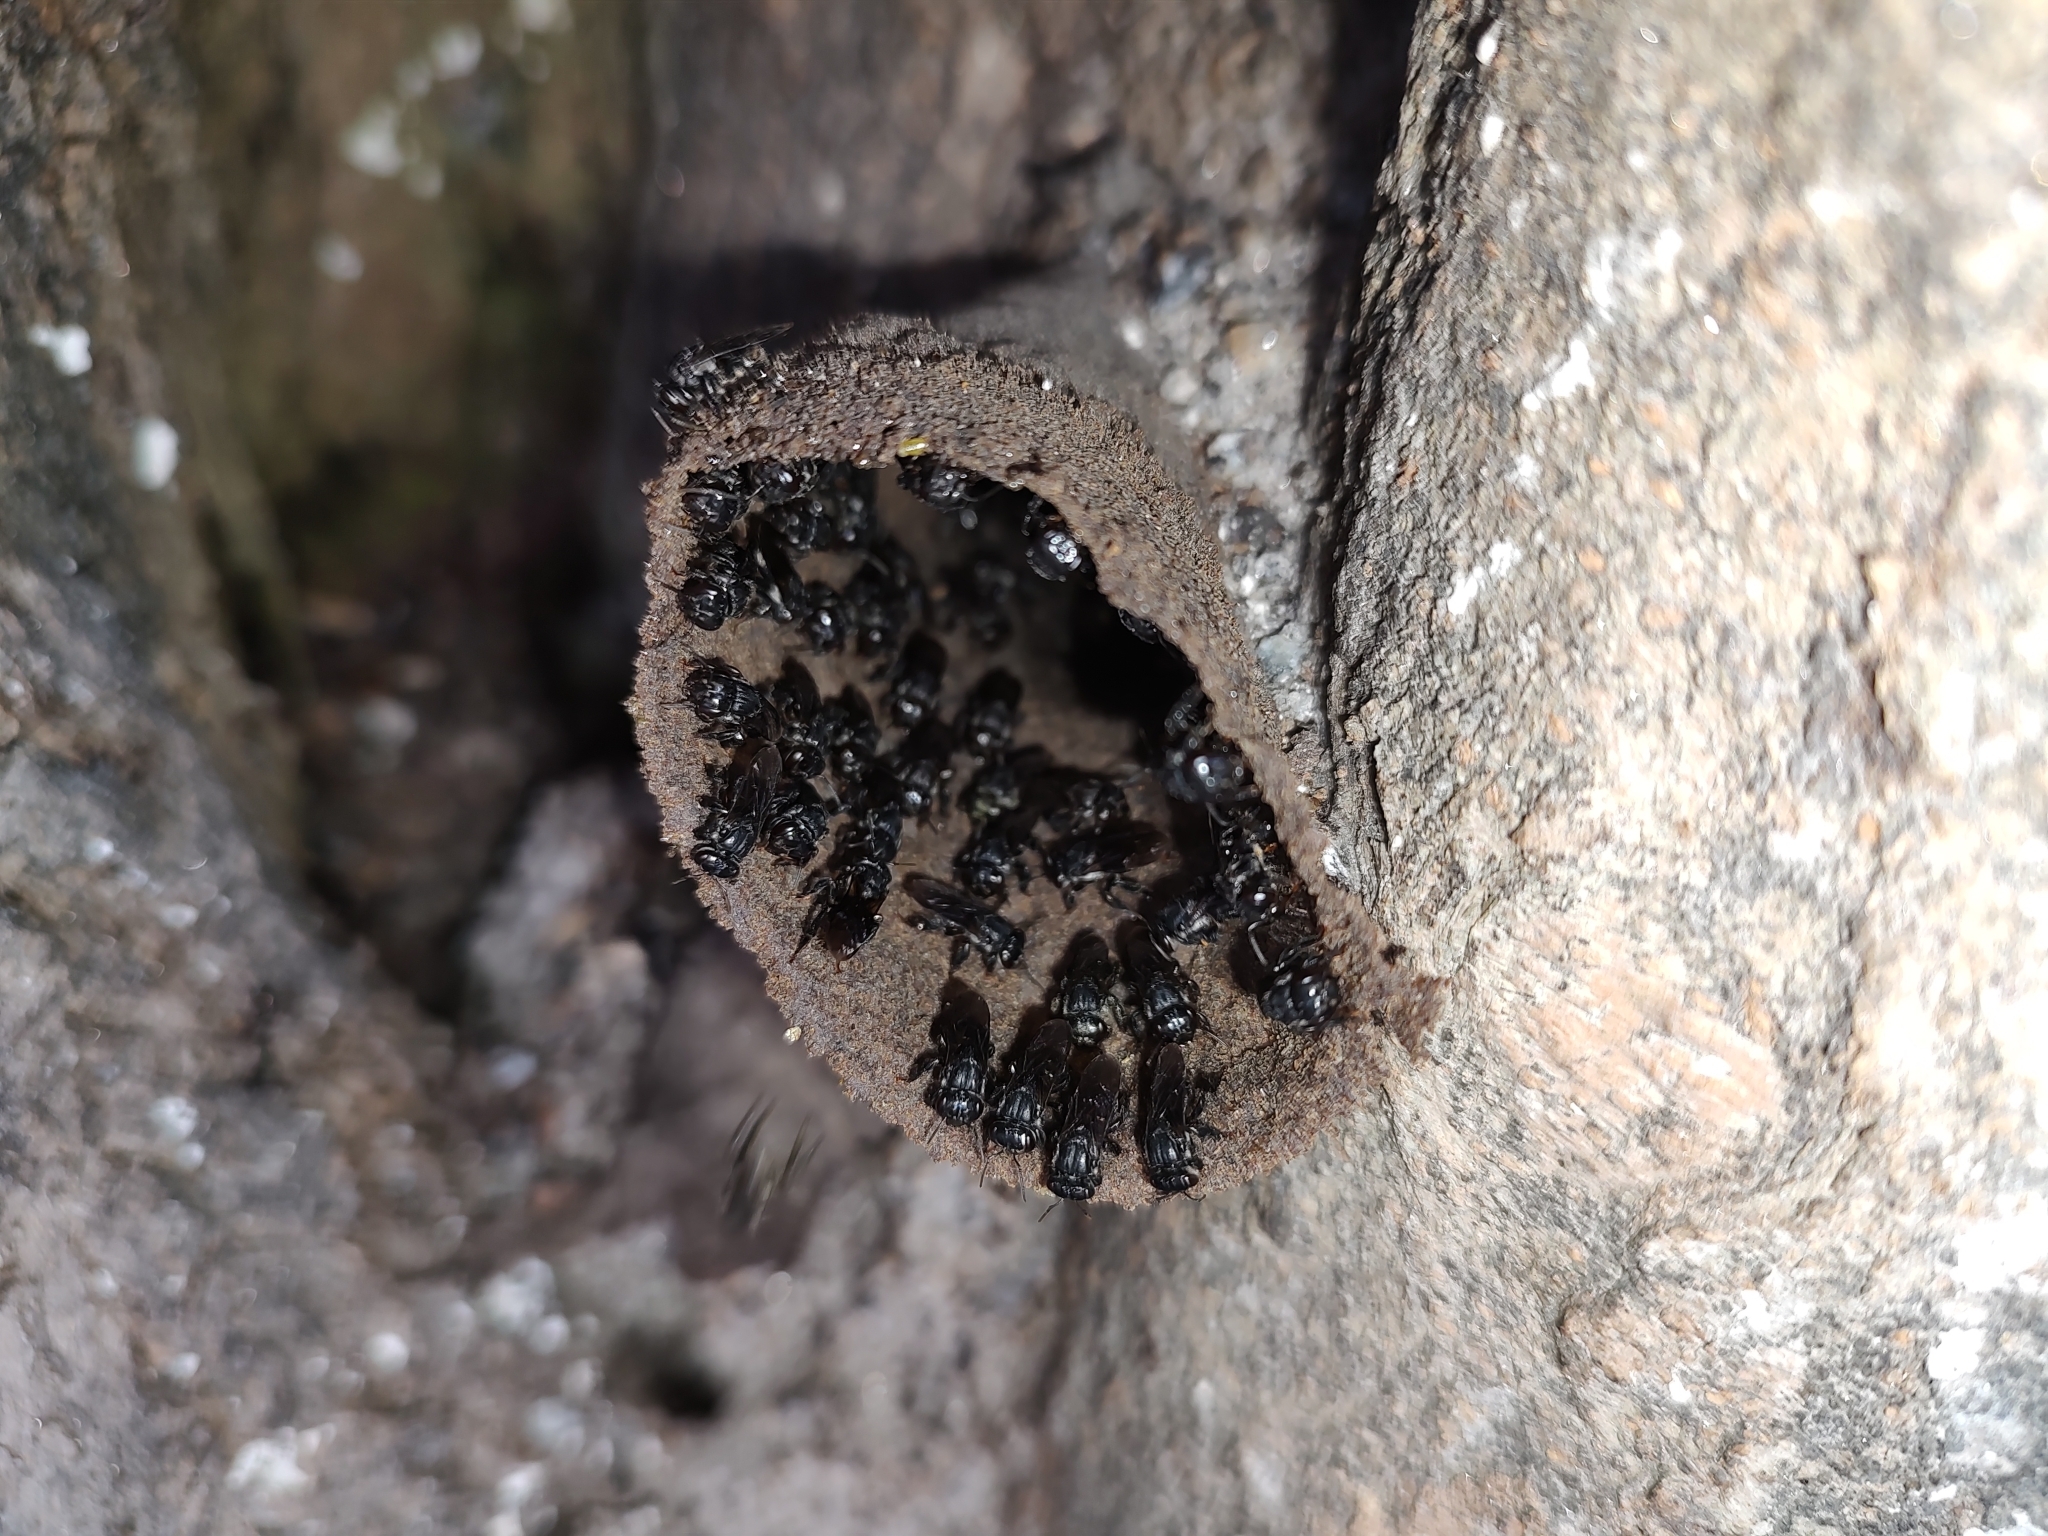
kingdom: Animalia
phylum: Arthropoda
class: Insecta
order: Hymenoptera
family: Apidae
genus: Scaptotrigona
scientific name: Scaptotrigona bipunctata
